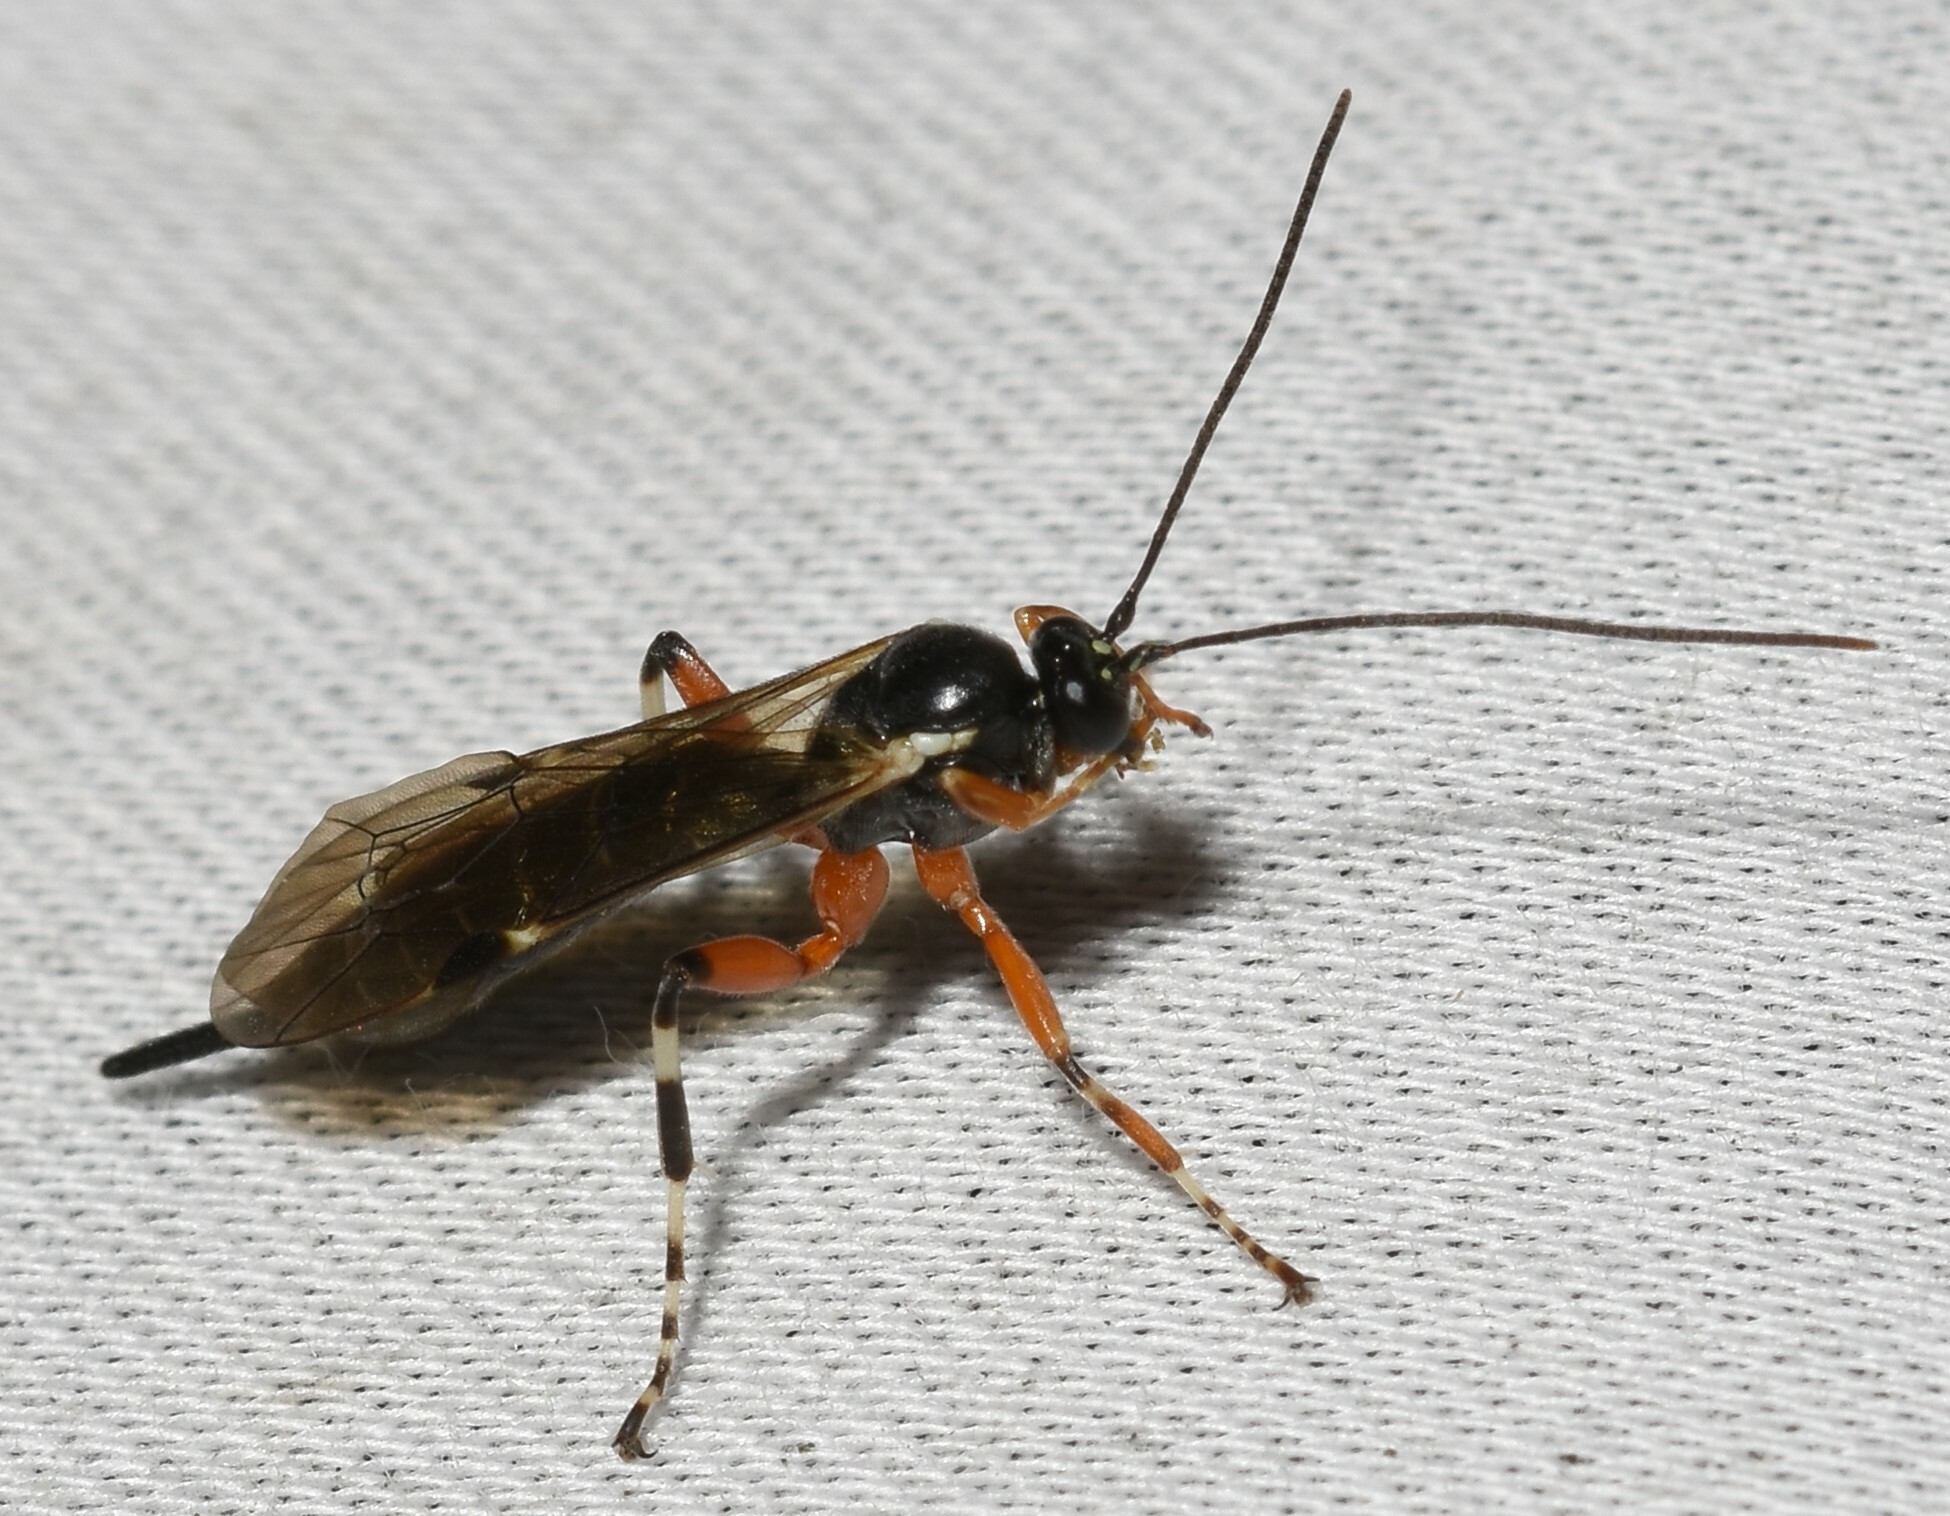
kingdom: Animalia
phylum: Arthropoda
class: Insecta
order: Hymenoptera
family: Ichneumonidae
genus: Itoplectis
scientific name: Itoplectis conquisitor
